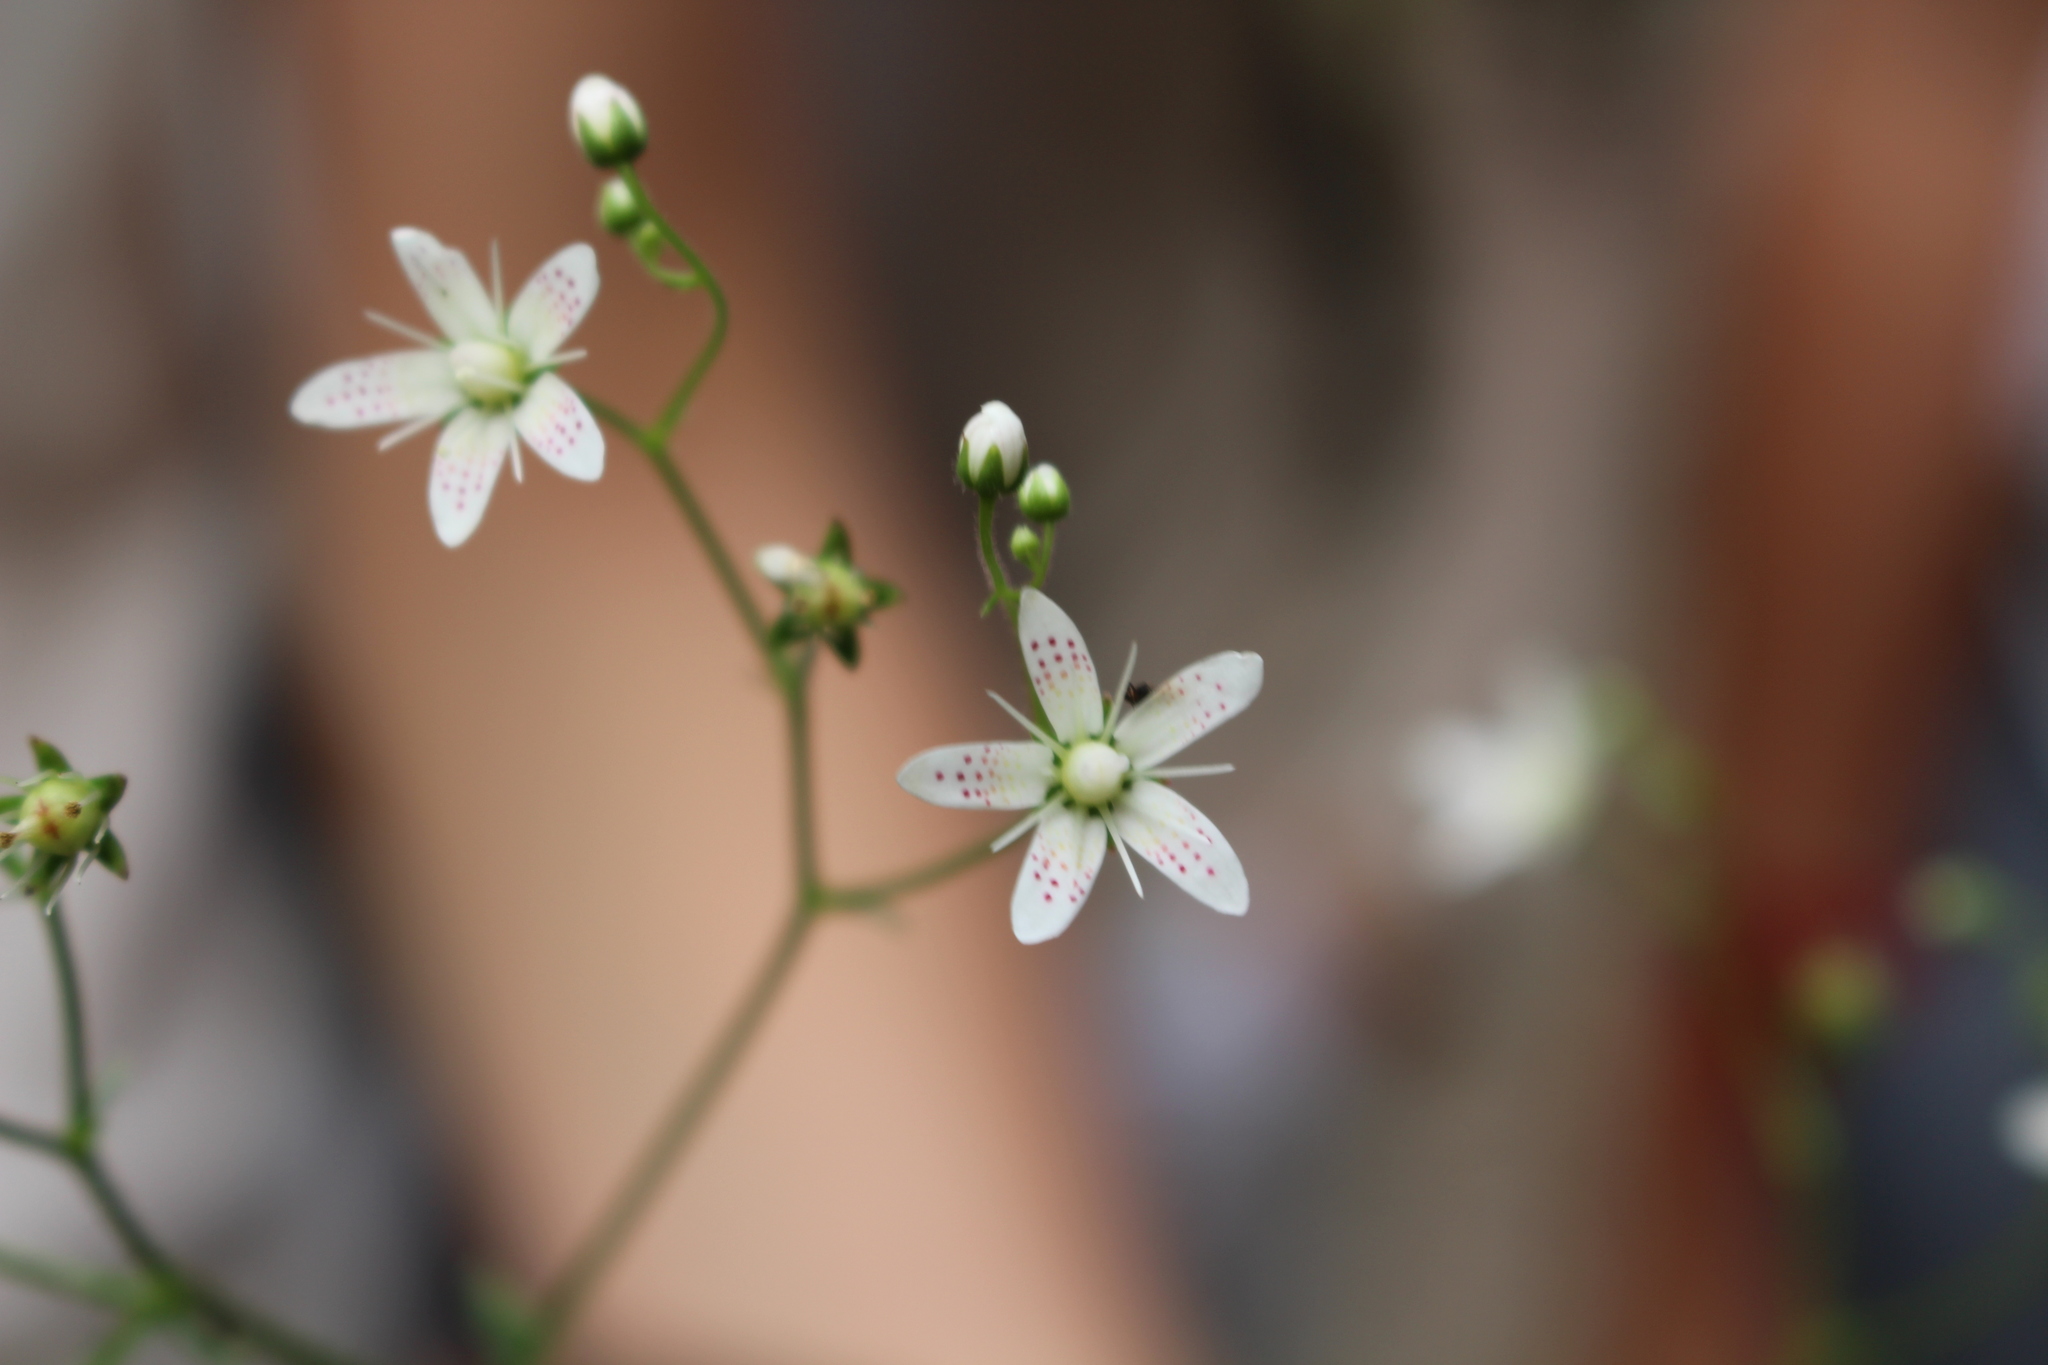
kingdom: Plantae
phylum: Tracheophyta
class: Magnoliopsida
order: Saxifragales
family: Saxifragaceae
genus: Saxifraga
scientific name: Saxifraga rotundifolia
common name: Round-leaved saxifrage
